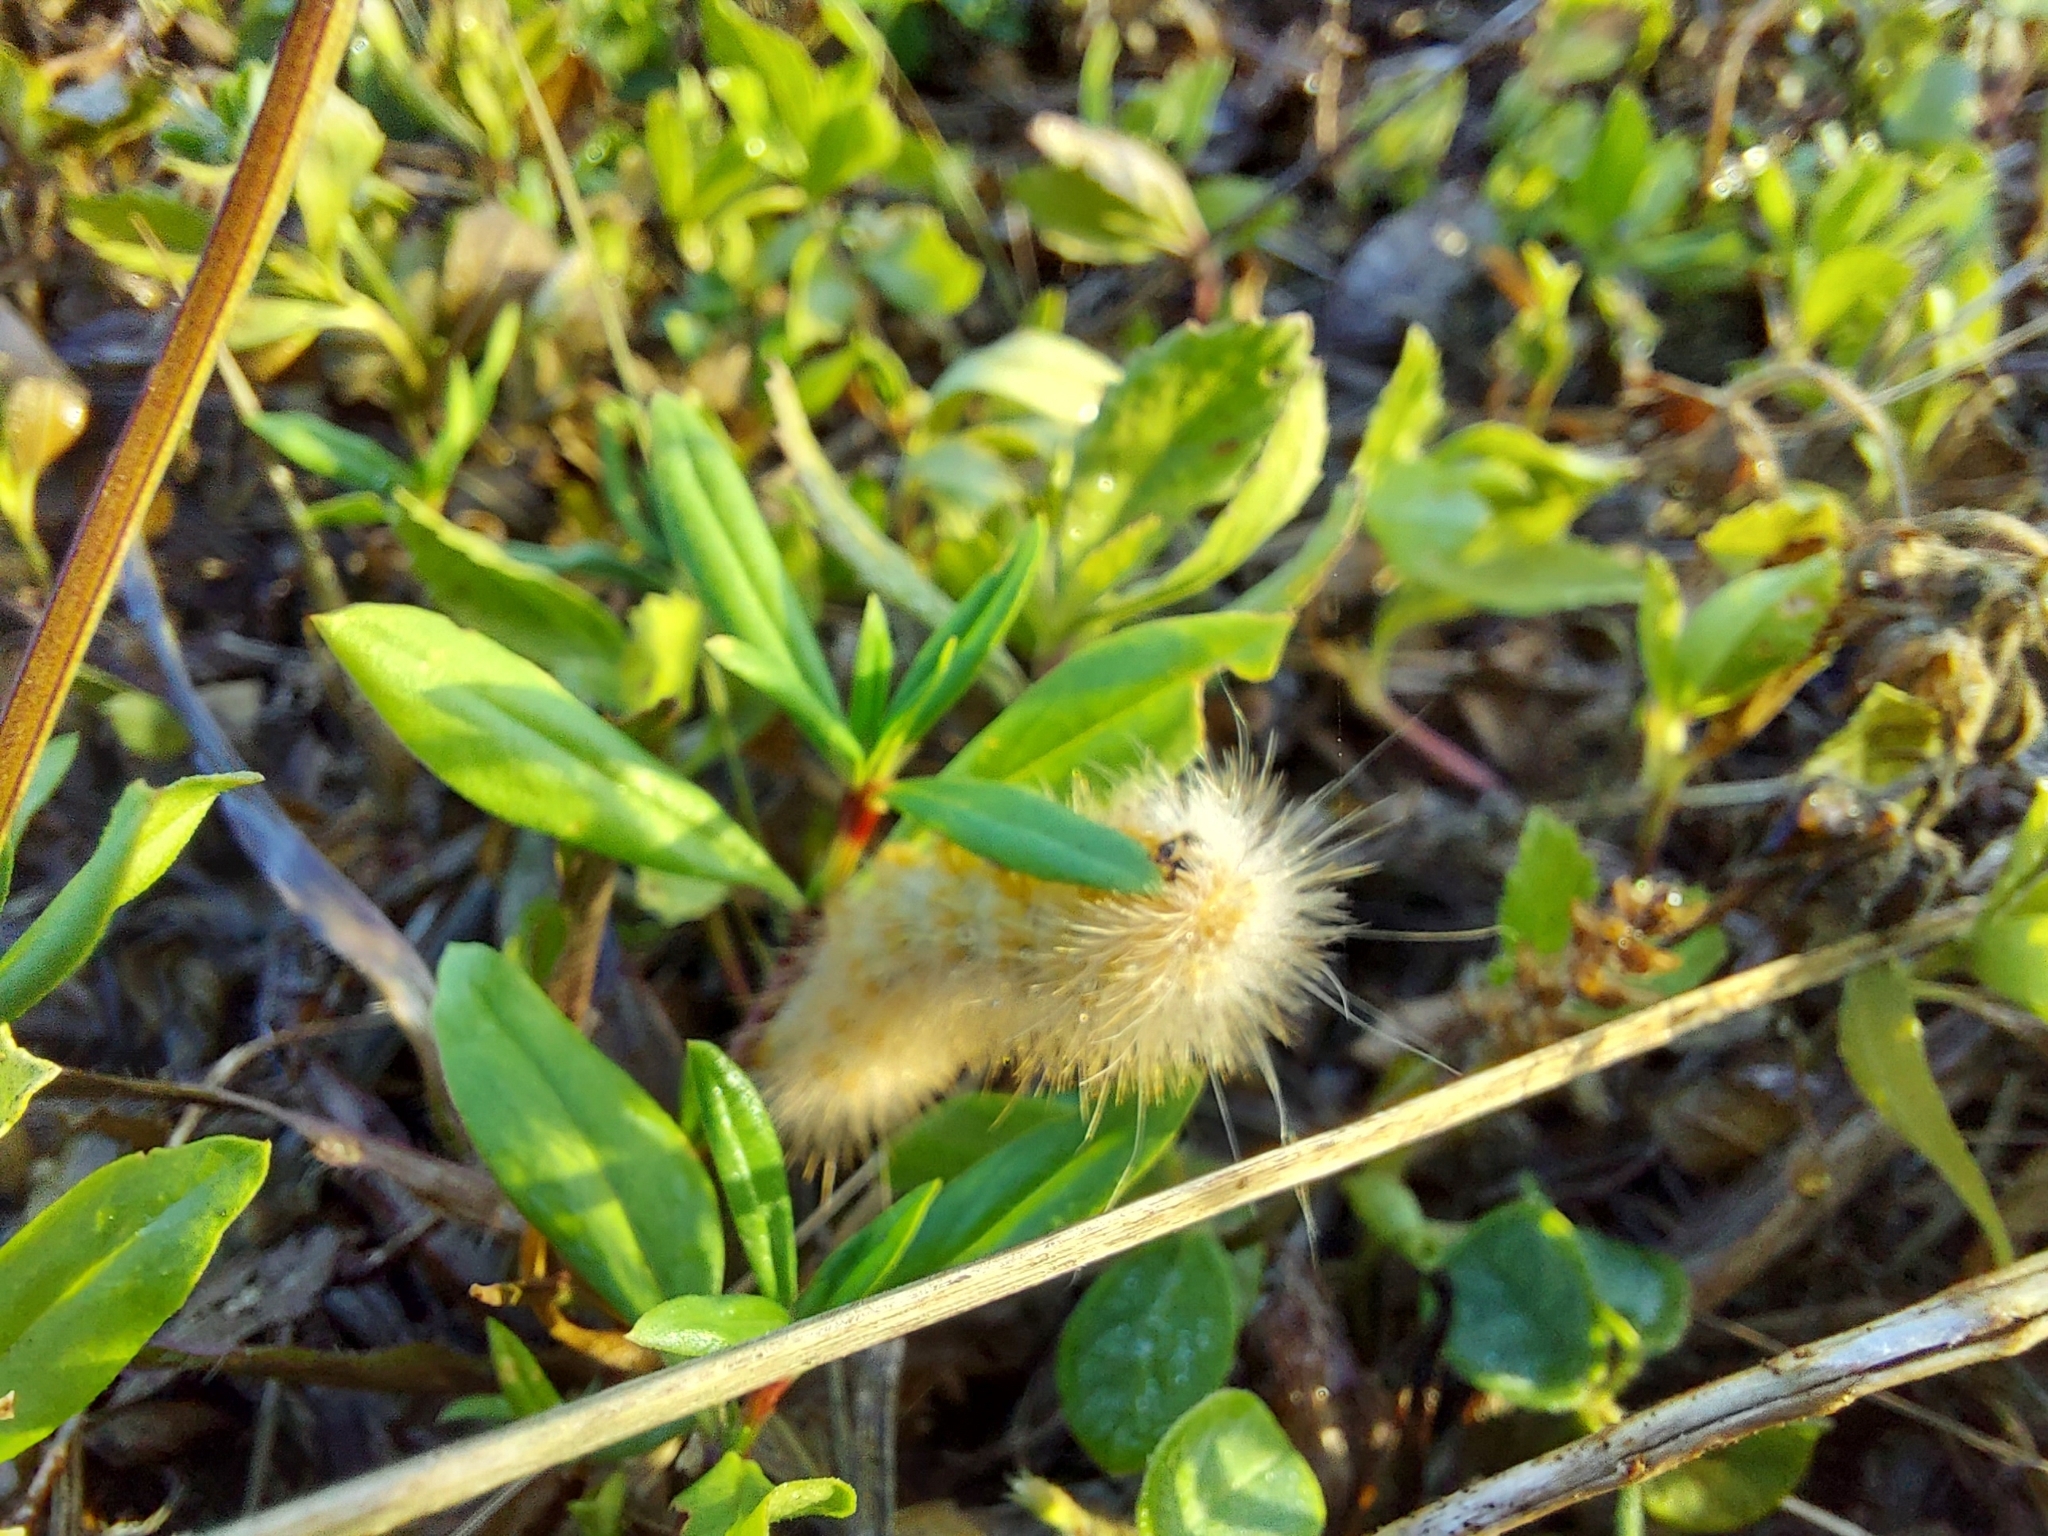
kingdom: Animalia
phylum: Arthropoda
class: Insecta
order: Lepidoptera
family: Erebidae
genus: Estigmene
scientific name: Estigmene acrea
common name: Salt marsh moth
